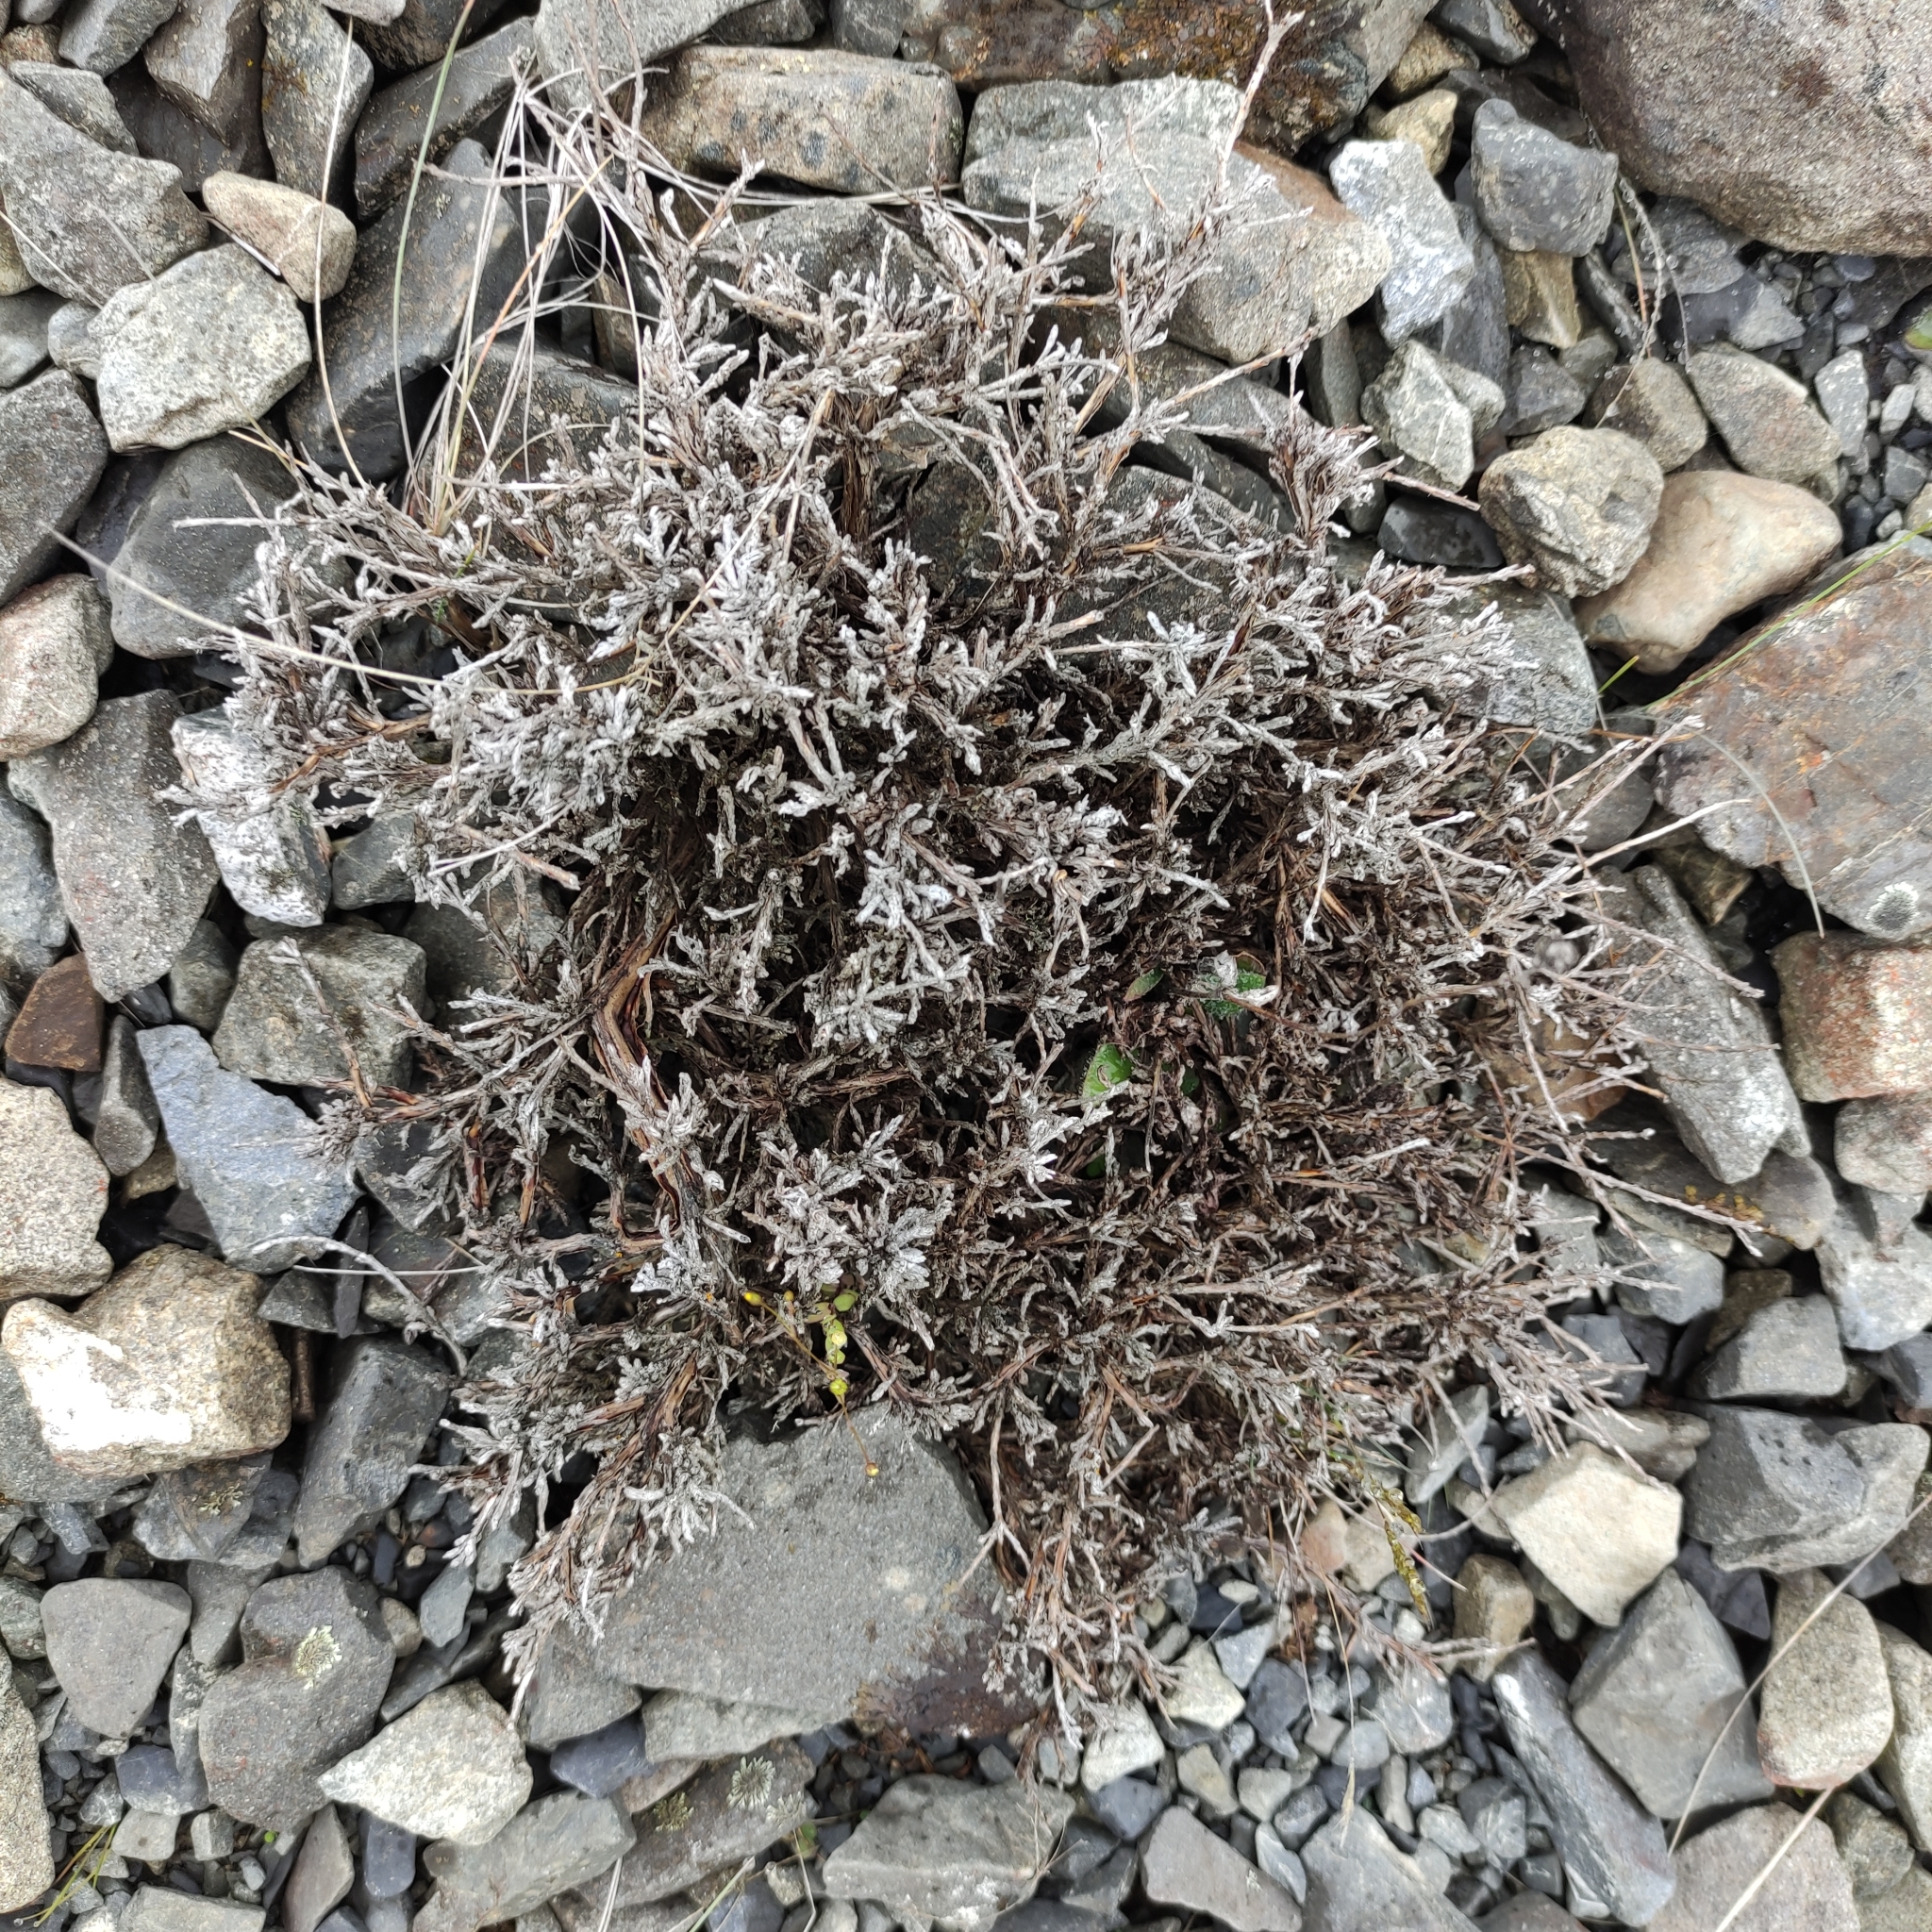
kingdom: Plantae
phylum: Tracheophyta
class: Magnoliopsida
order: Asterales
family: Asteraceae
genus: Ozothamnus
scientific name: Ozothamnus depressus
